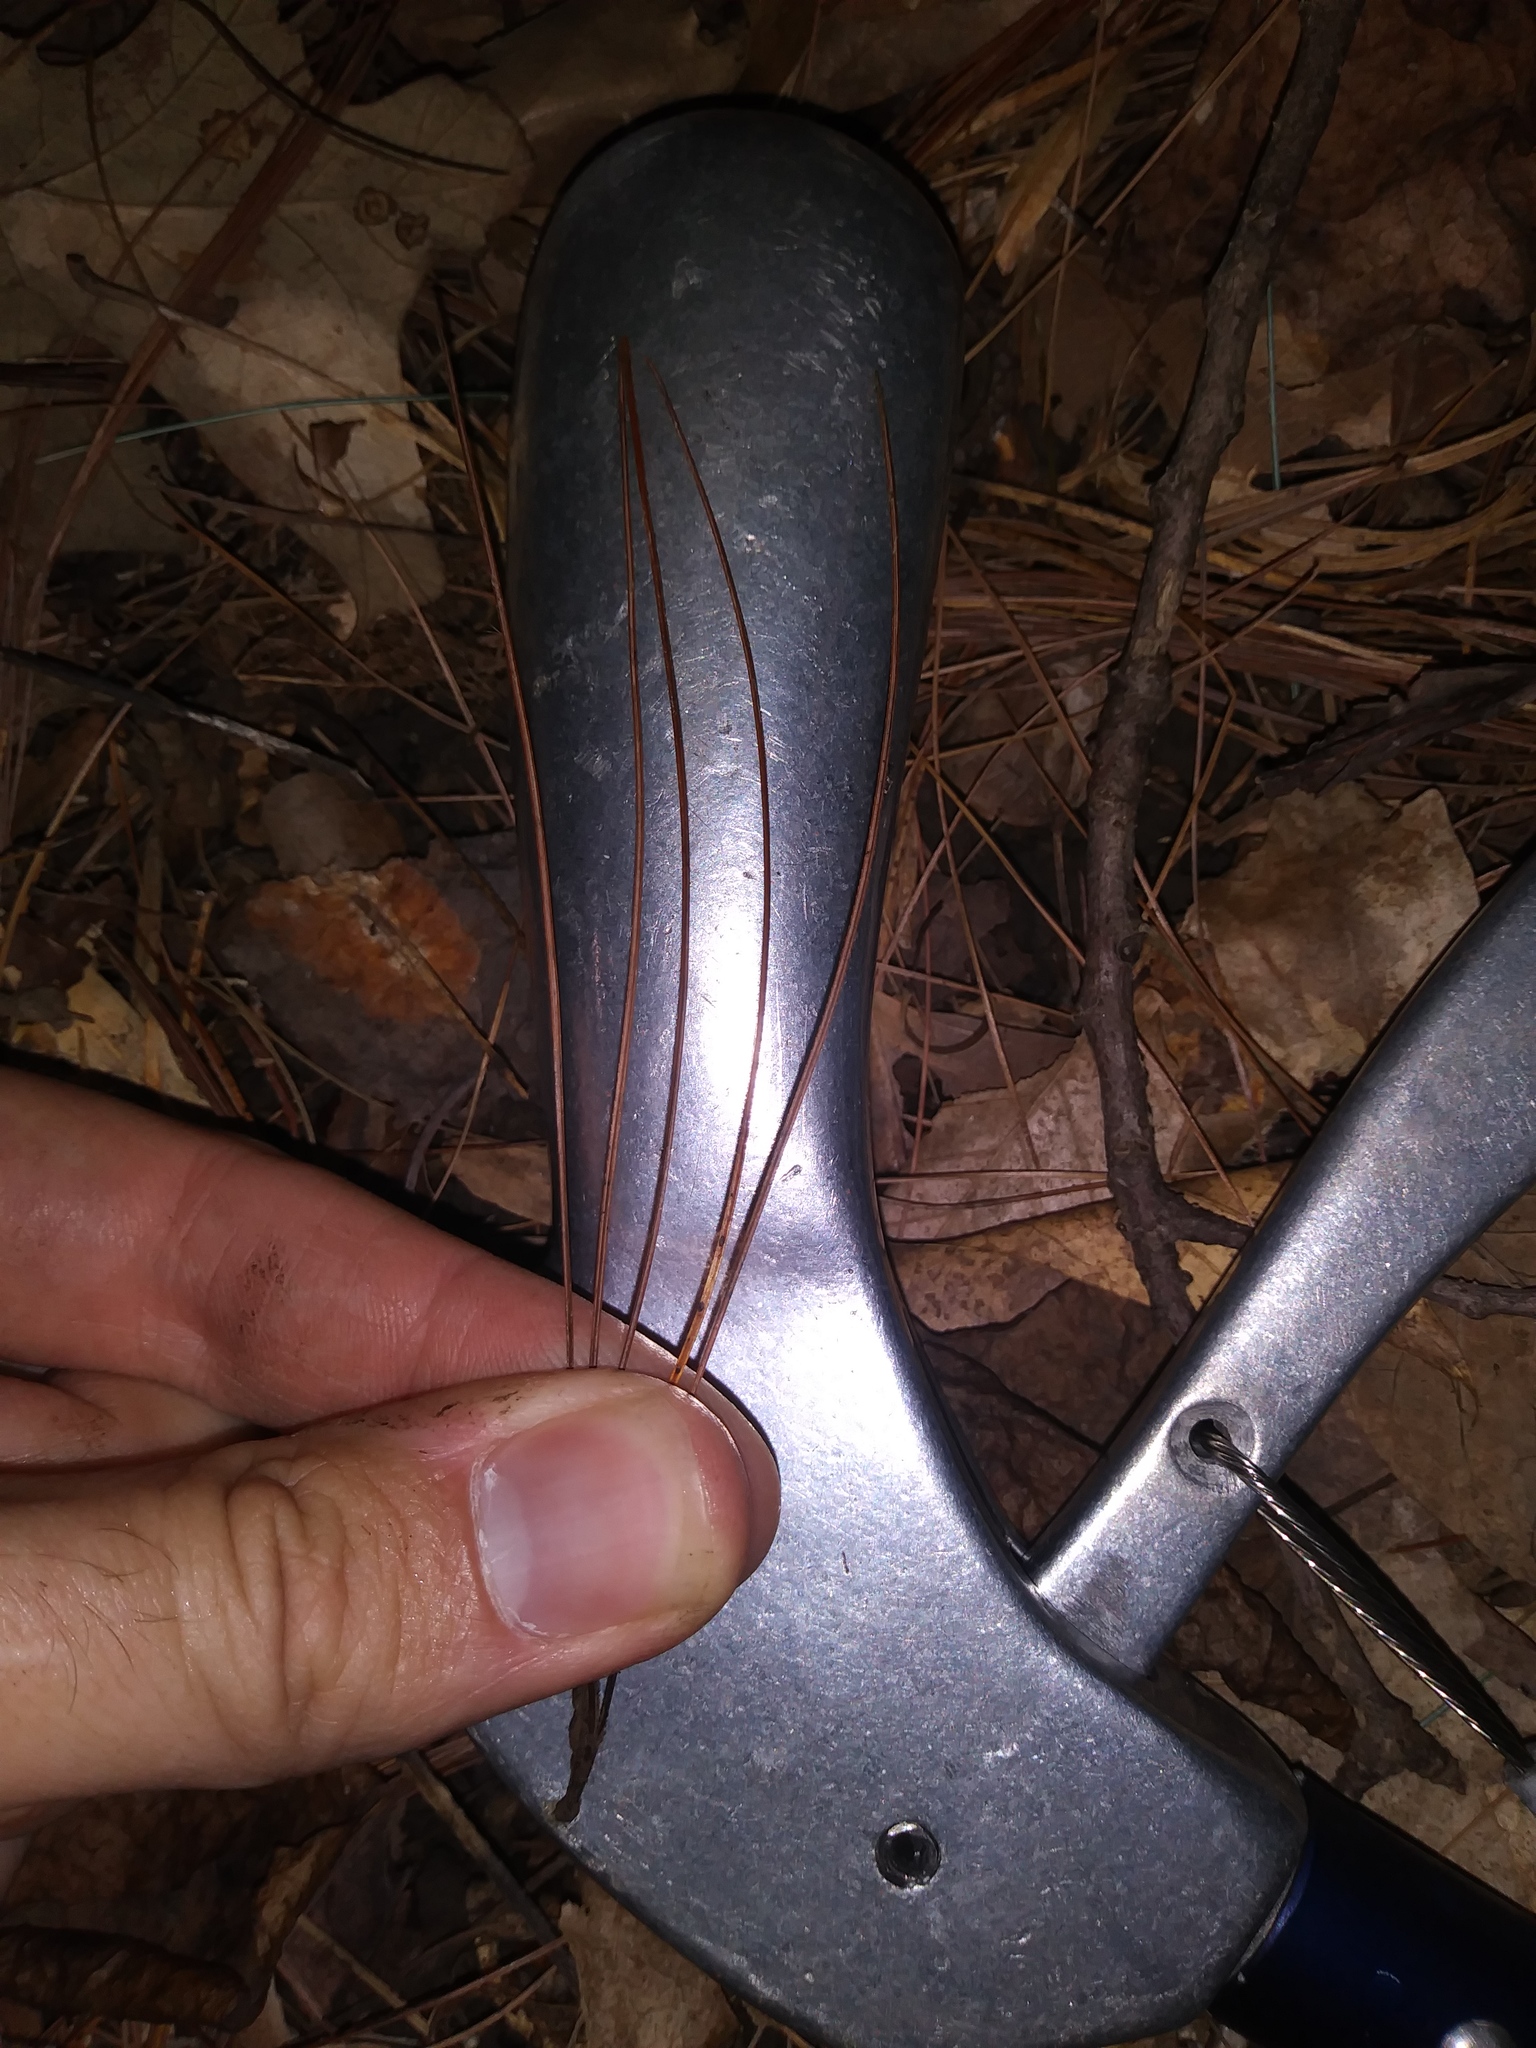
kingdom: Plantae
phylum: Tracheophyta
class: Pinopsida
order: Pinales
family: Pinaceae
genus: Pinus
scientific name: Pinus strobus
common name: Weymouth pine
